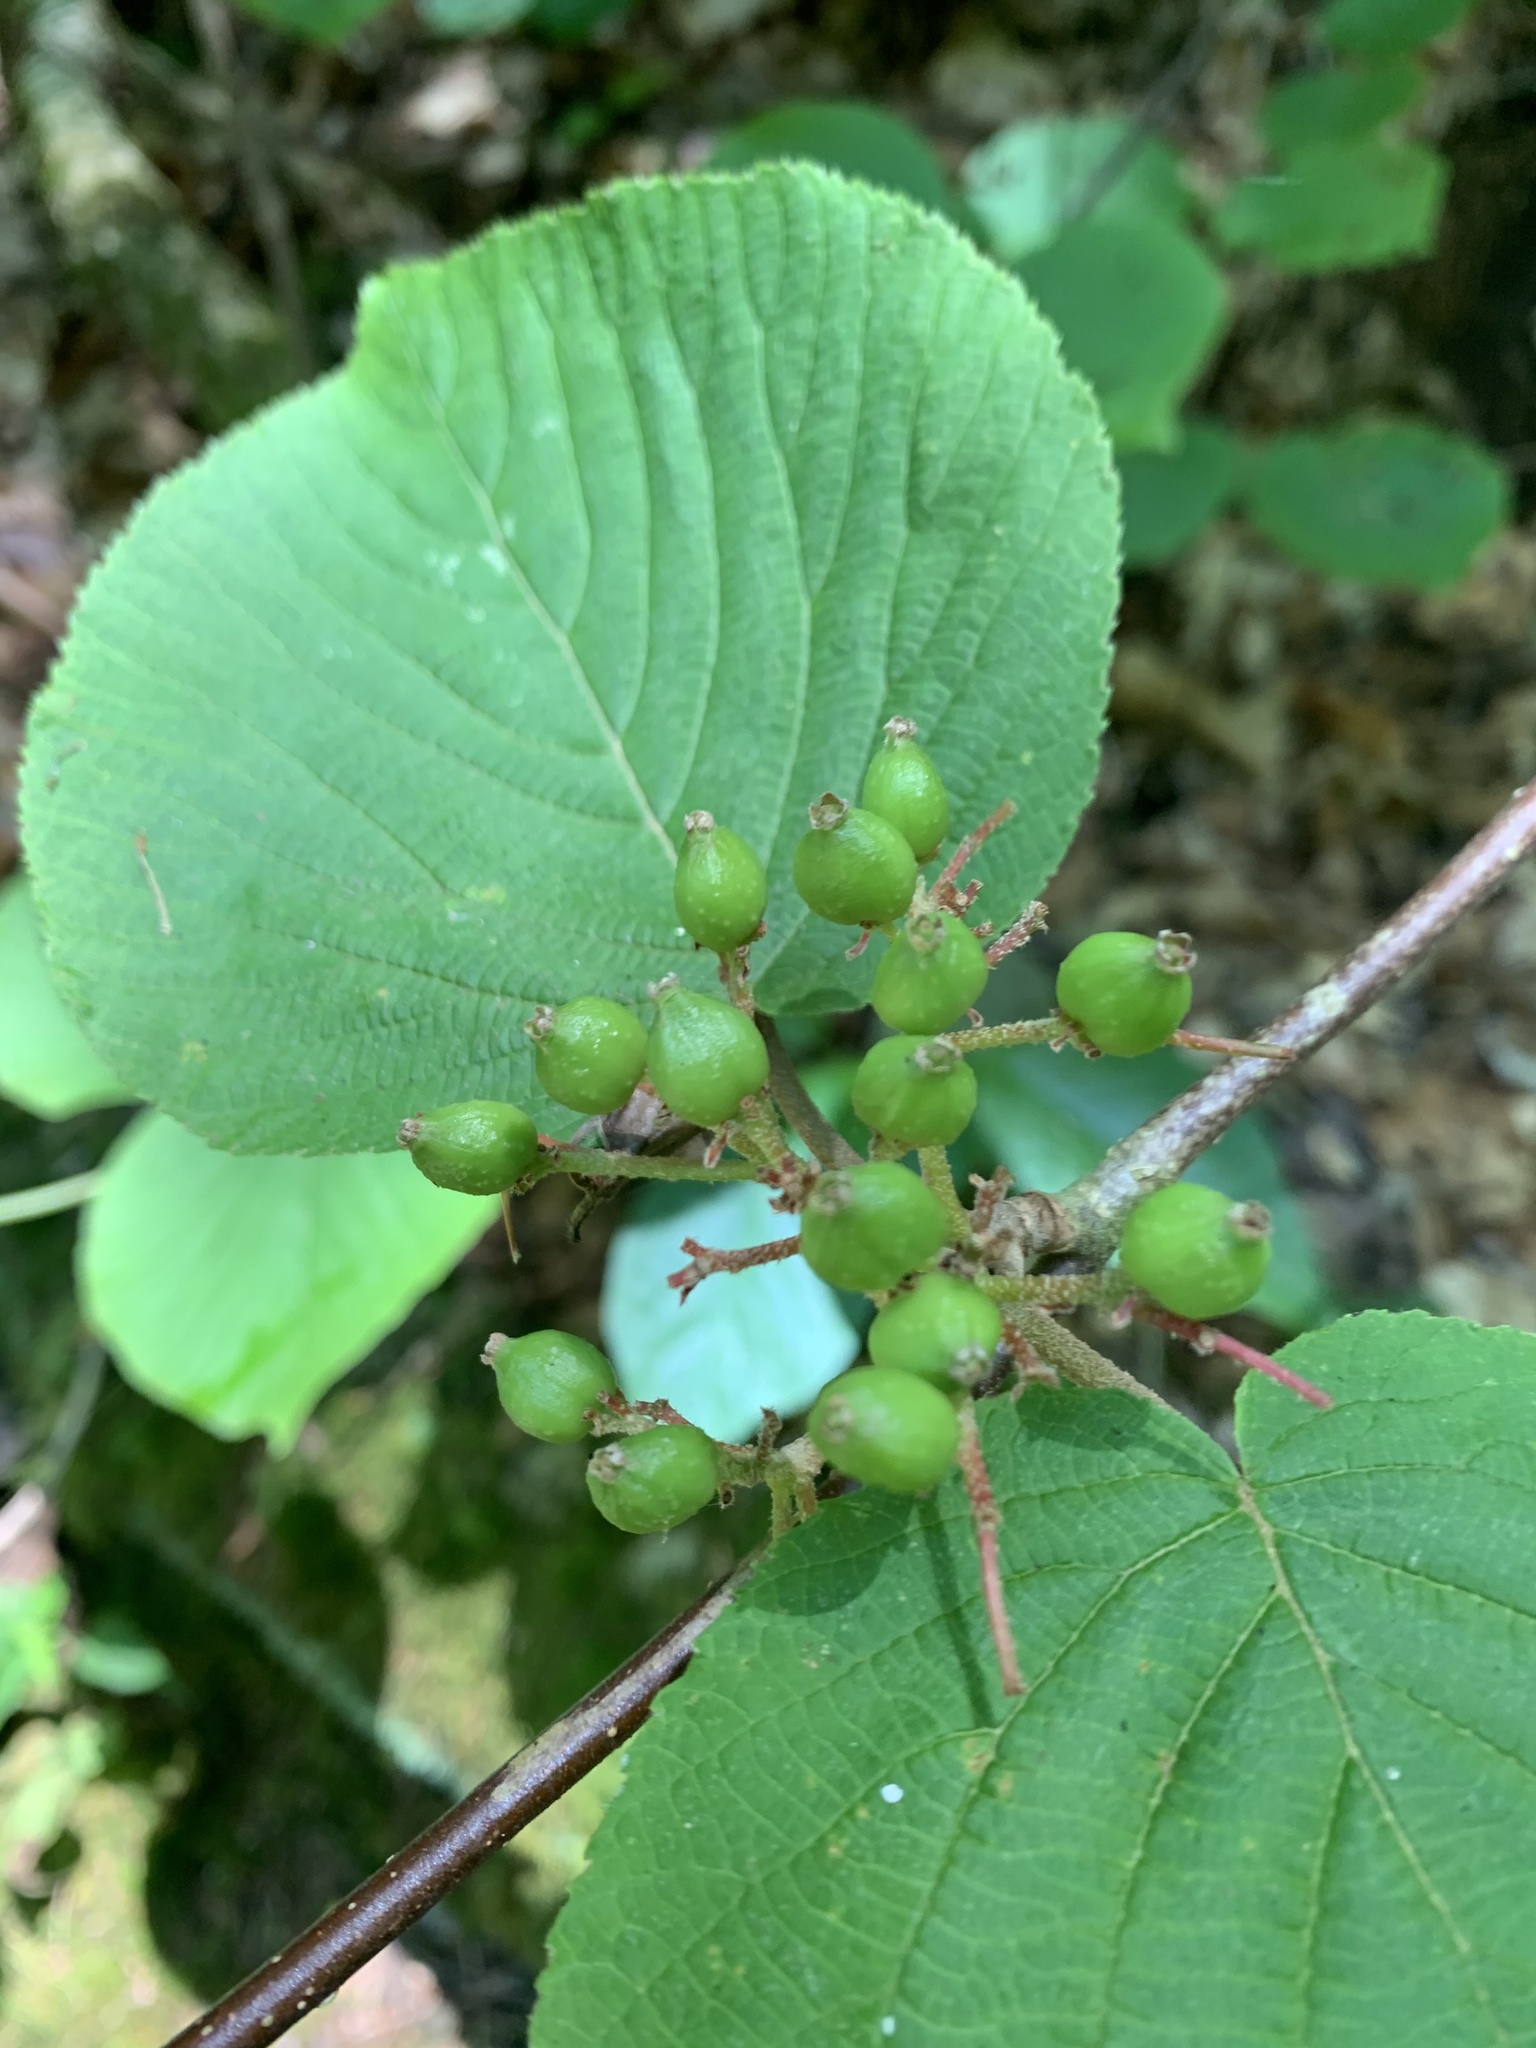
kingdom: Plantae
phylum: Tracheophyta
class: Magnoliopsida
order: Dipsacales
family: Viburnaceae
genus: Viburnum
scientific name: Viburnum lantanoides
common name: Hobblebush
